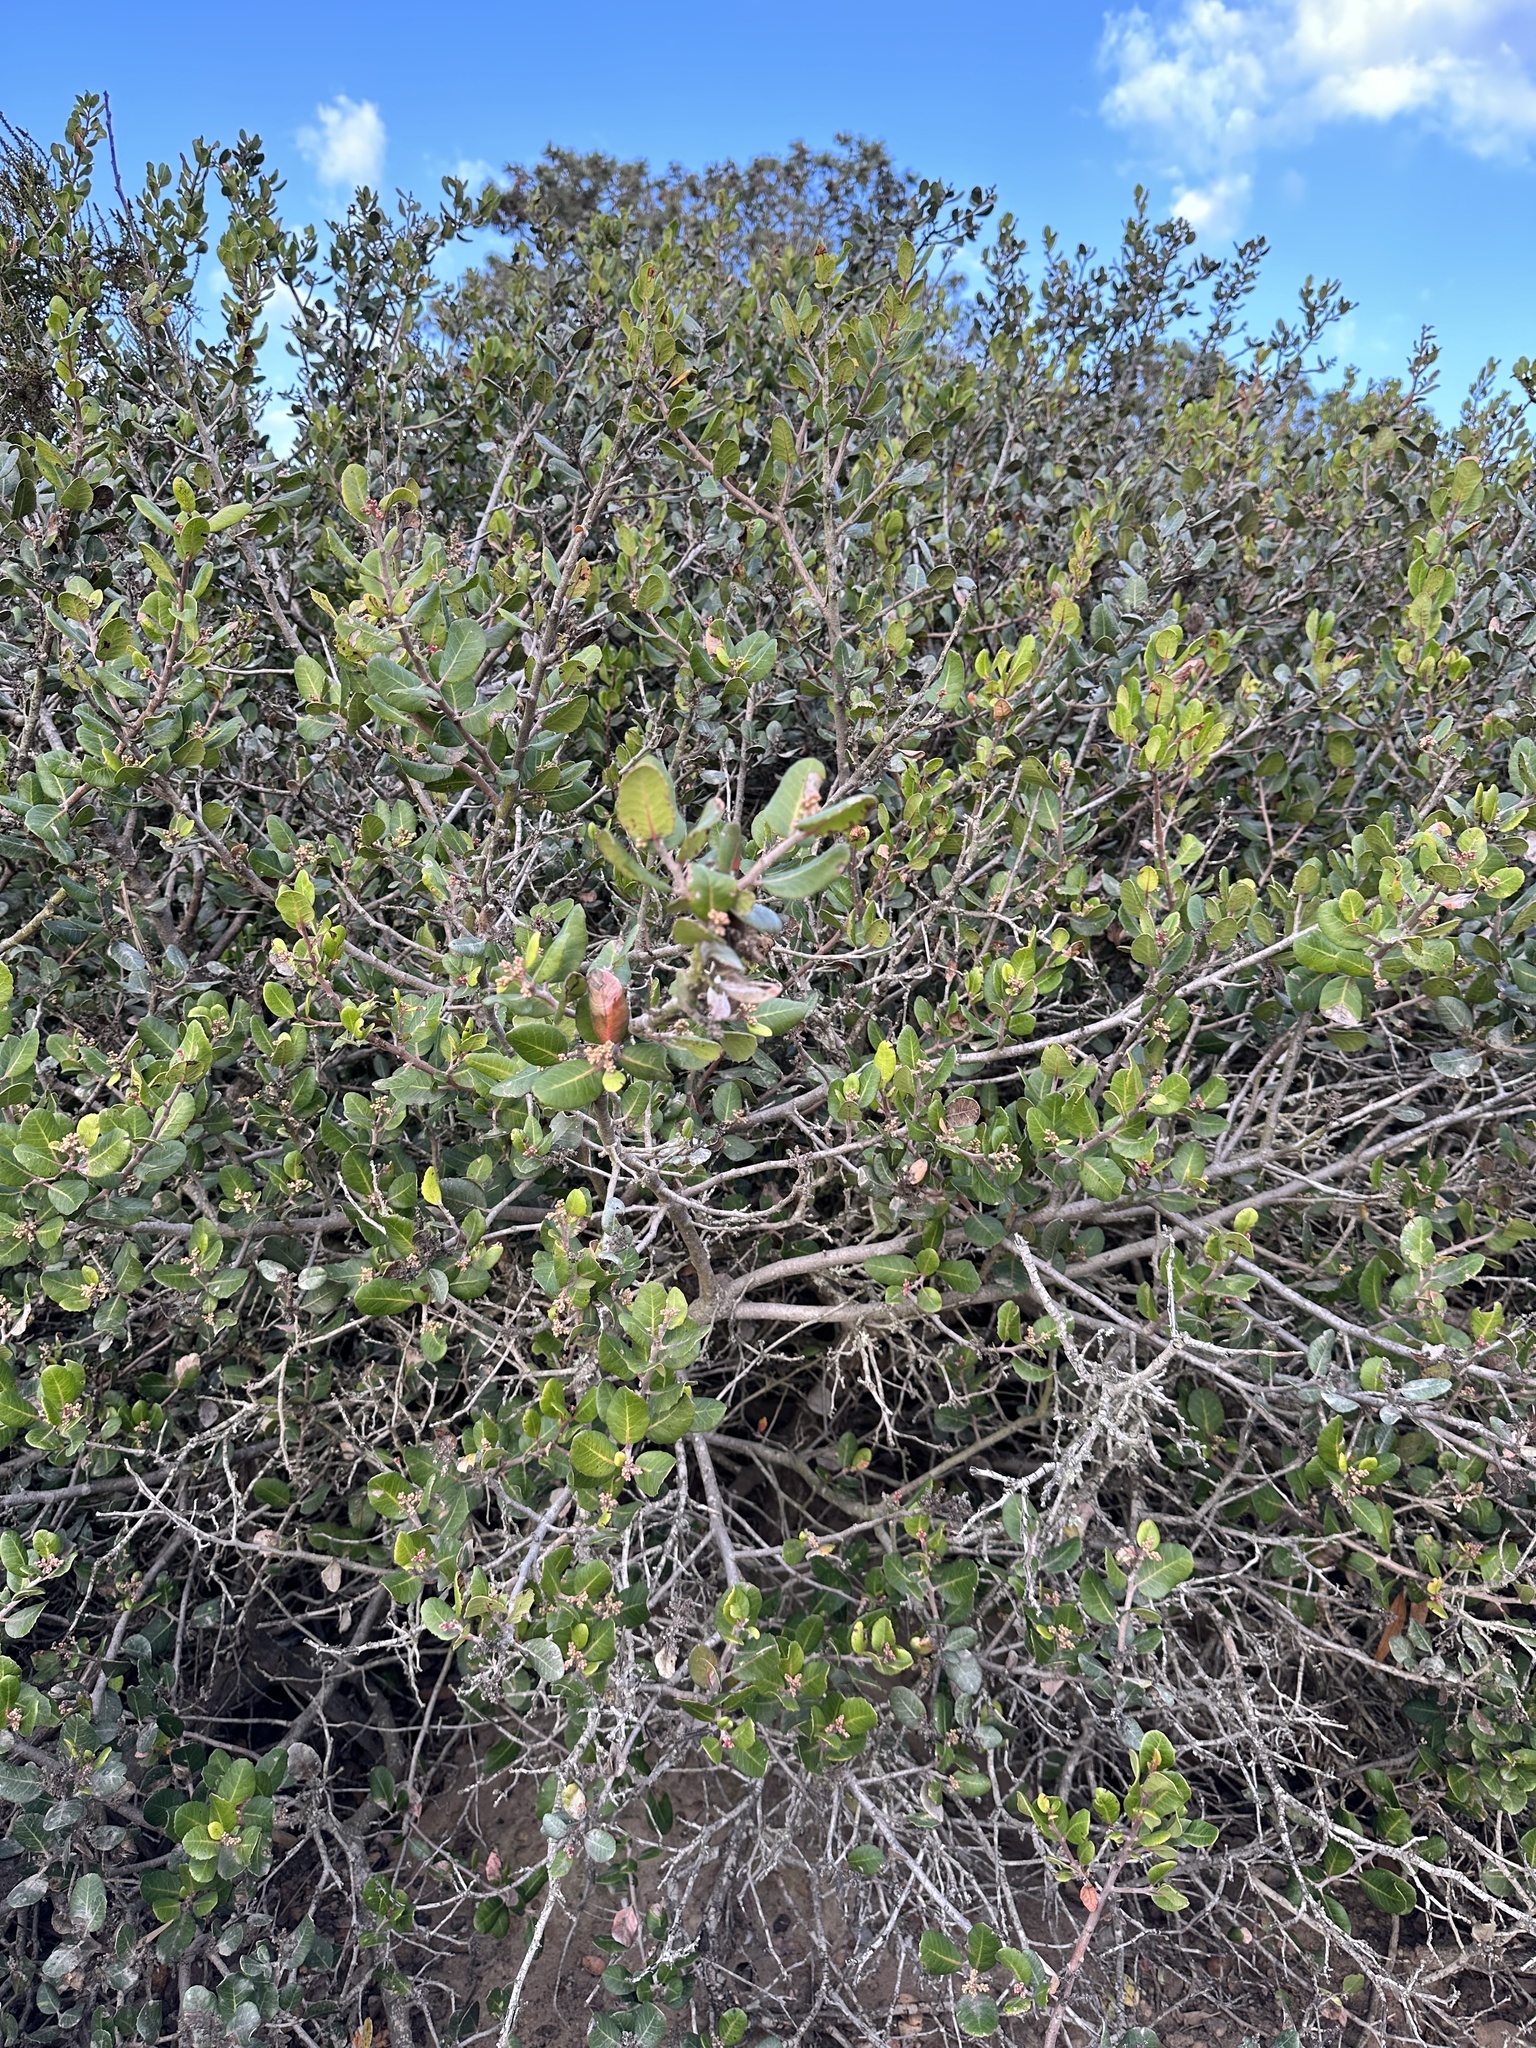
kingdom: Plantae
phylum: Tracheophyta
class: Magnoliopsida
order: Sapindales
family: Anacardiaceae
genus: Rhus
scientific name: Rhus integrifolia
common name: Lemonade sumac
